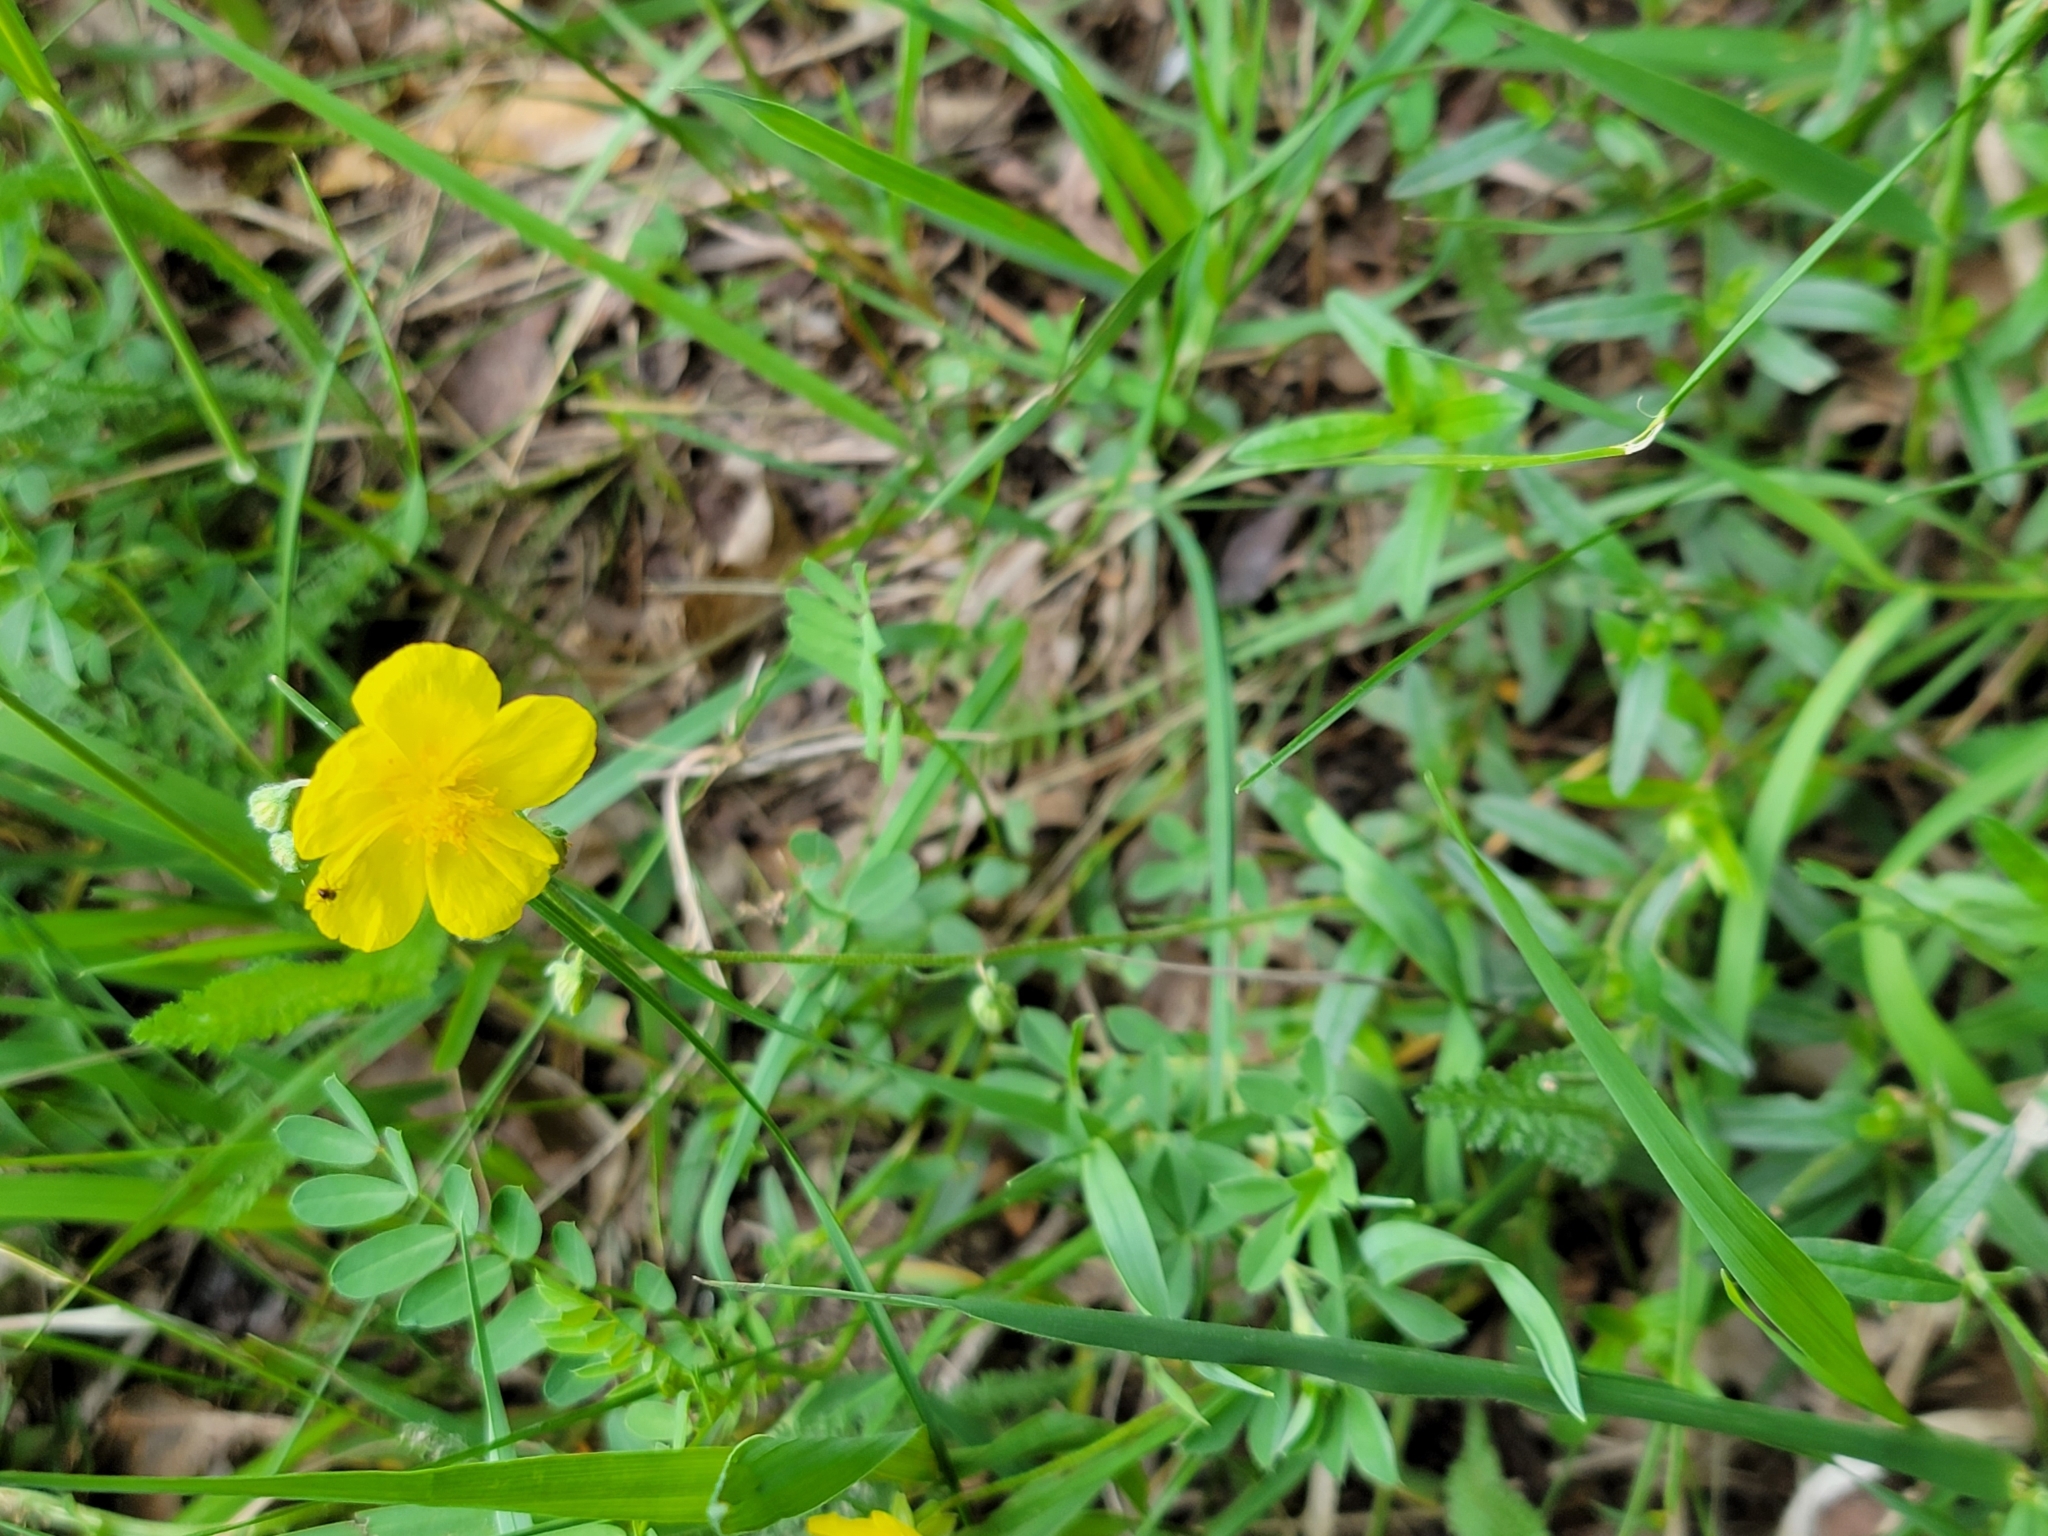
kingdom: Plantae
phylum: Tracheophyta
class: Magnoliopsida
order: Malvales
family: Cistaceae
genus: Helianthemum
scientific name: Helianthemum nummularium
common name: Common rock-rose
